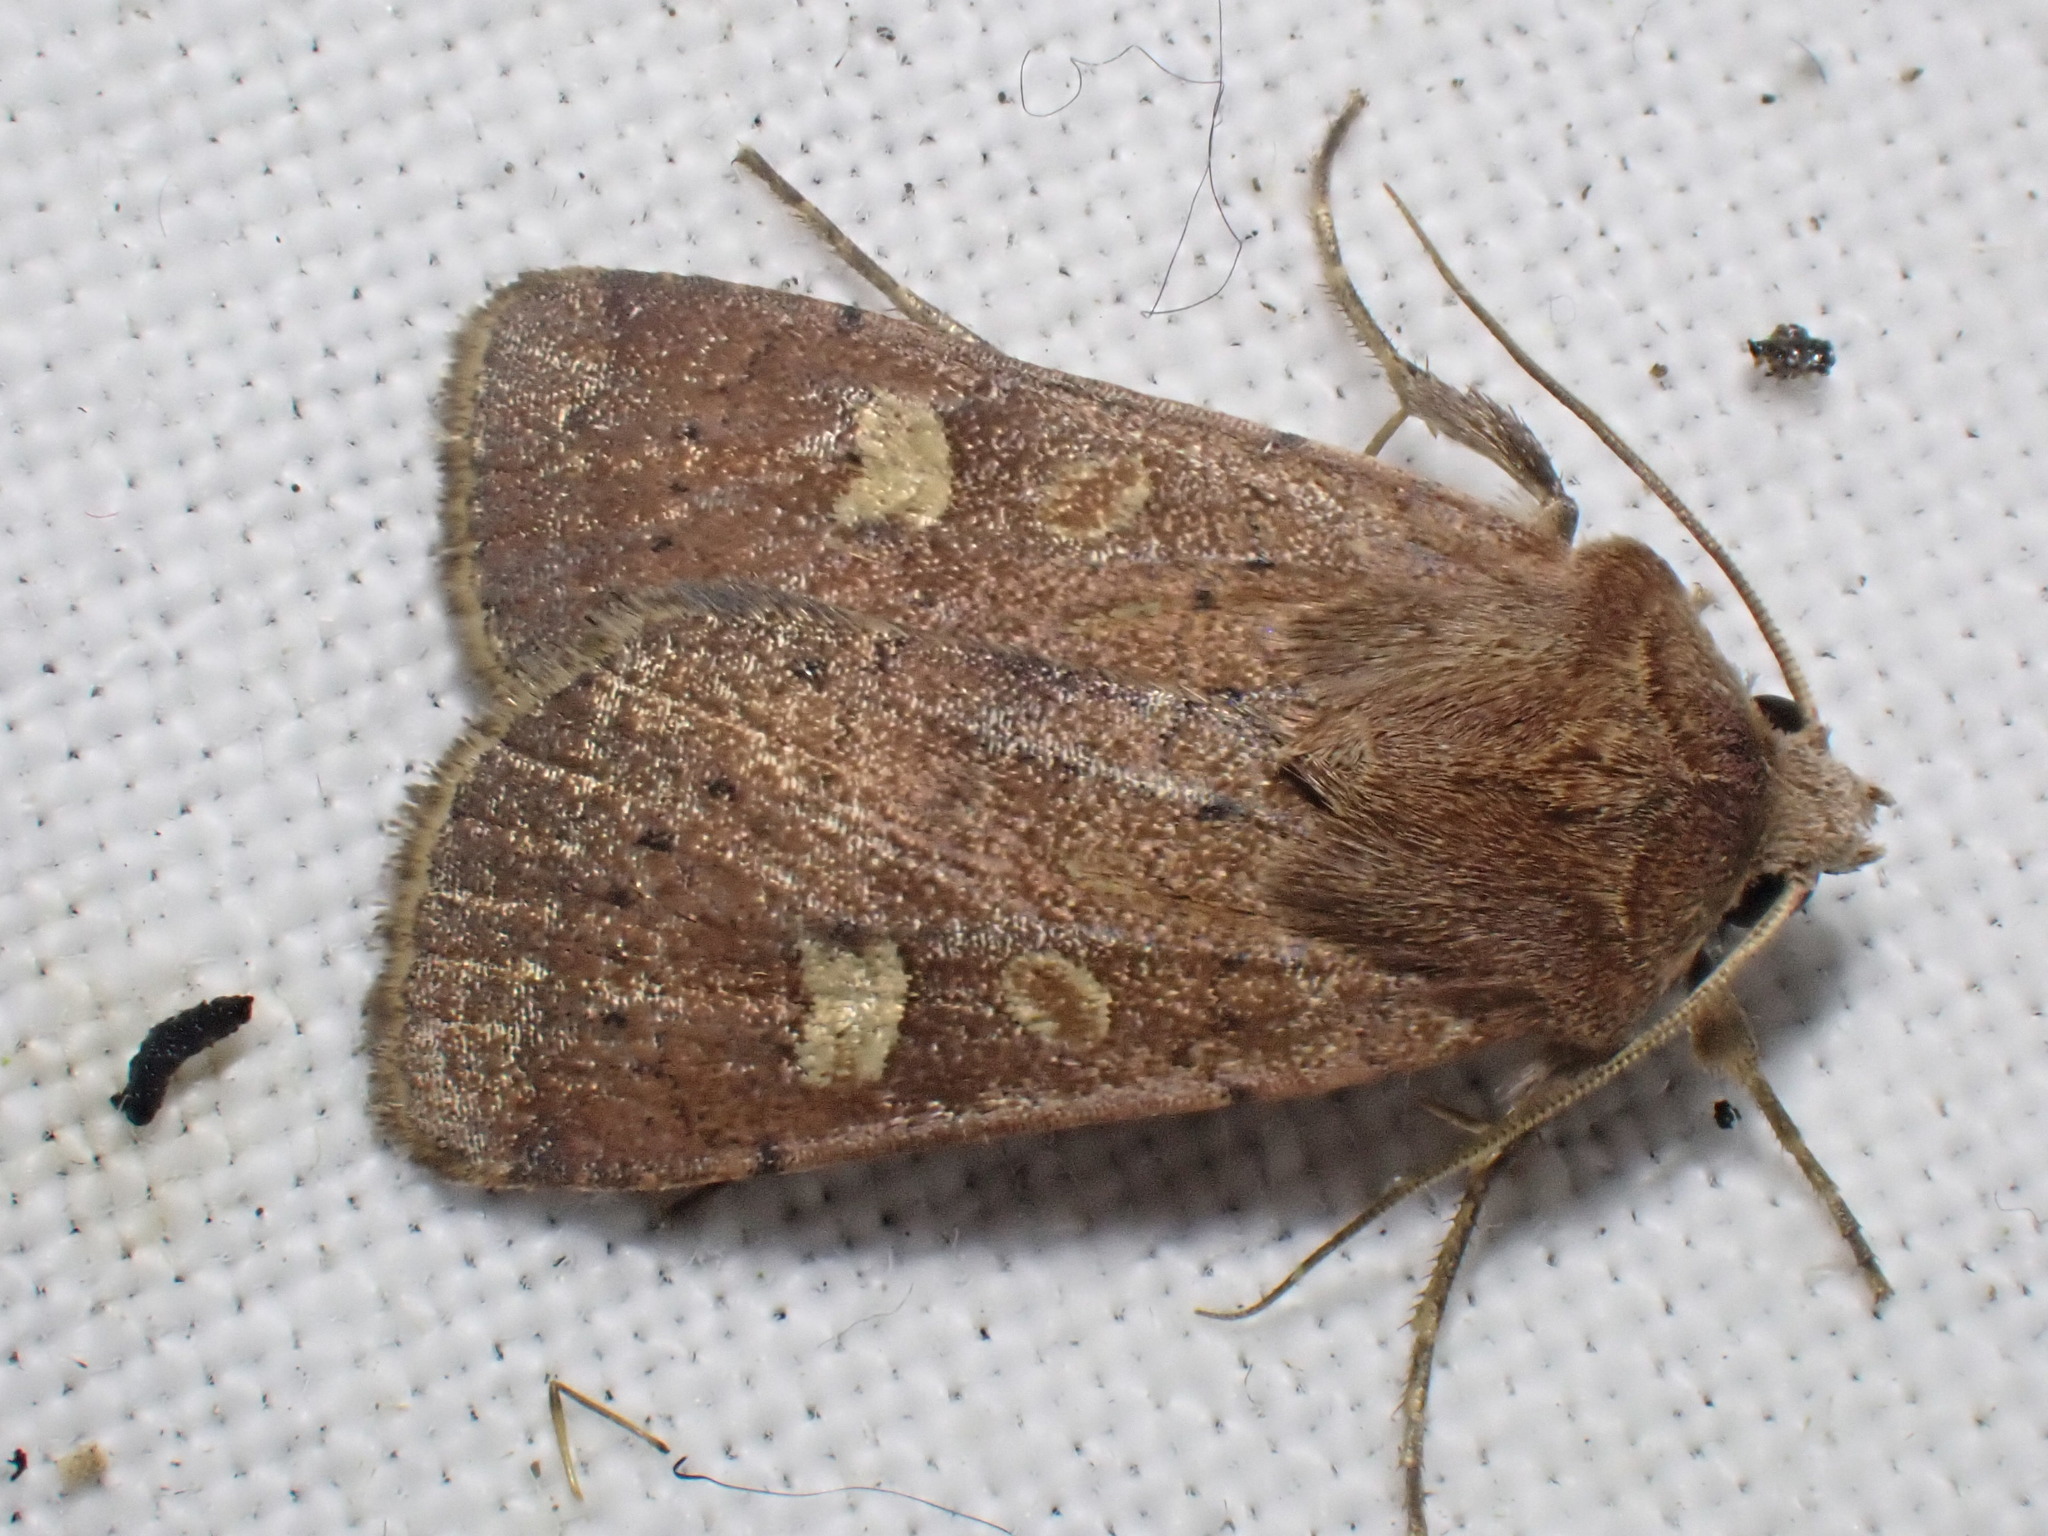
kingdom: Animalia
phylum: Arthropoda
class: Insecta
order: Lepidoptera
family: Noctuidae
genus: Xestia
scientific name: Xestia xanthographa
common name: Square-spot rustic
